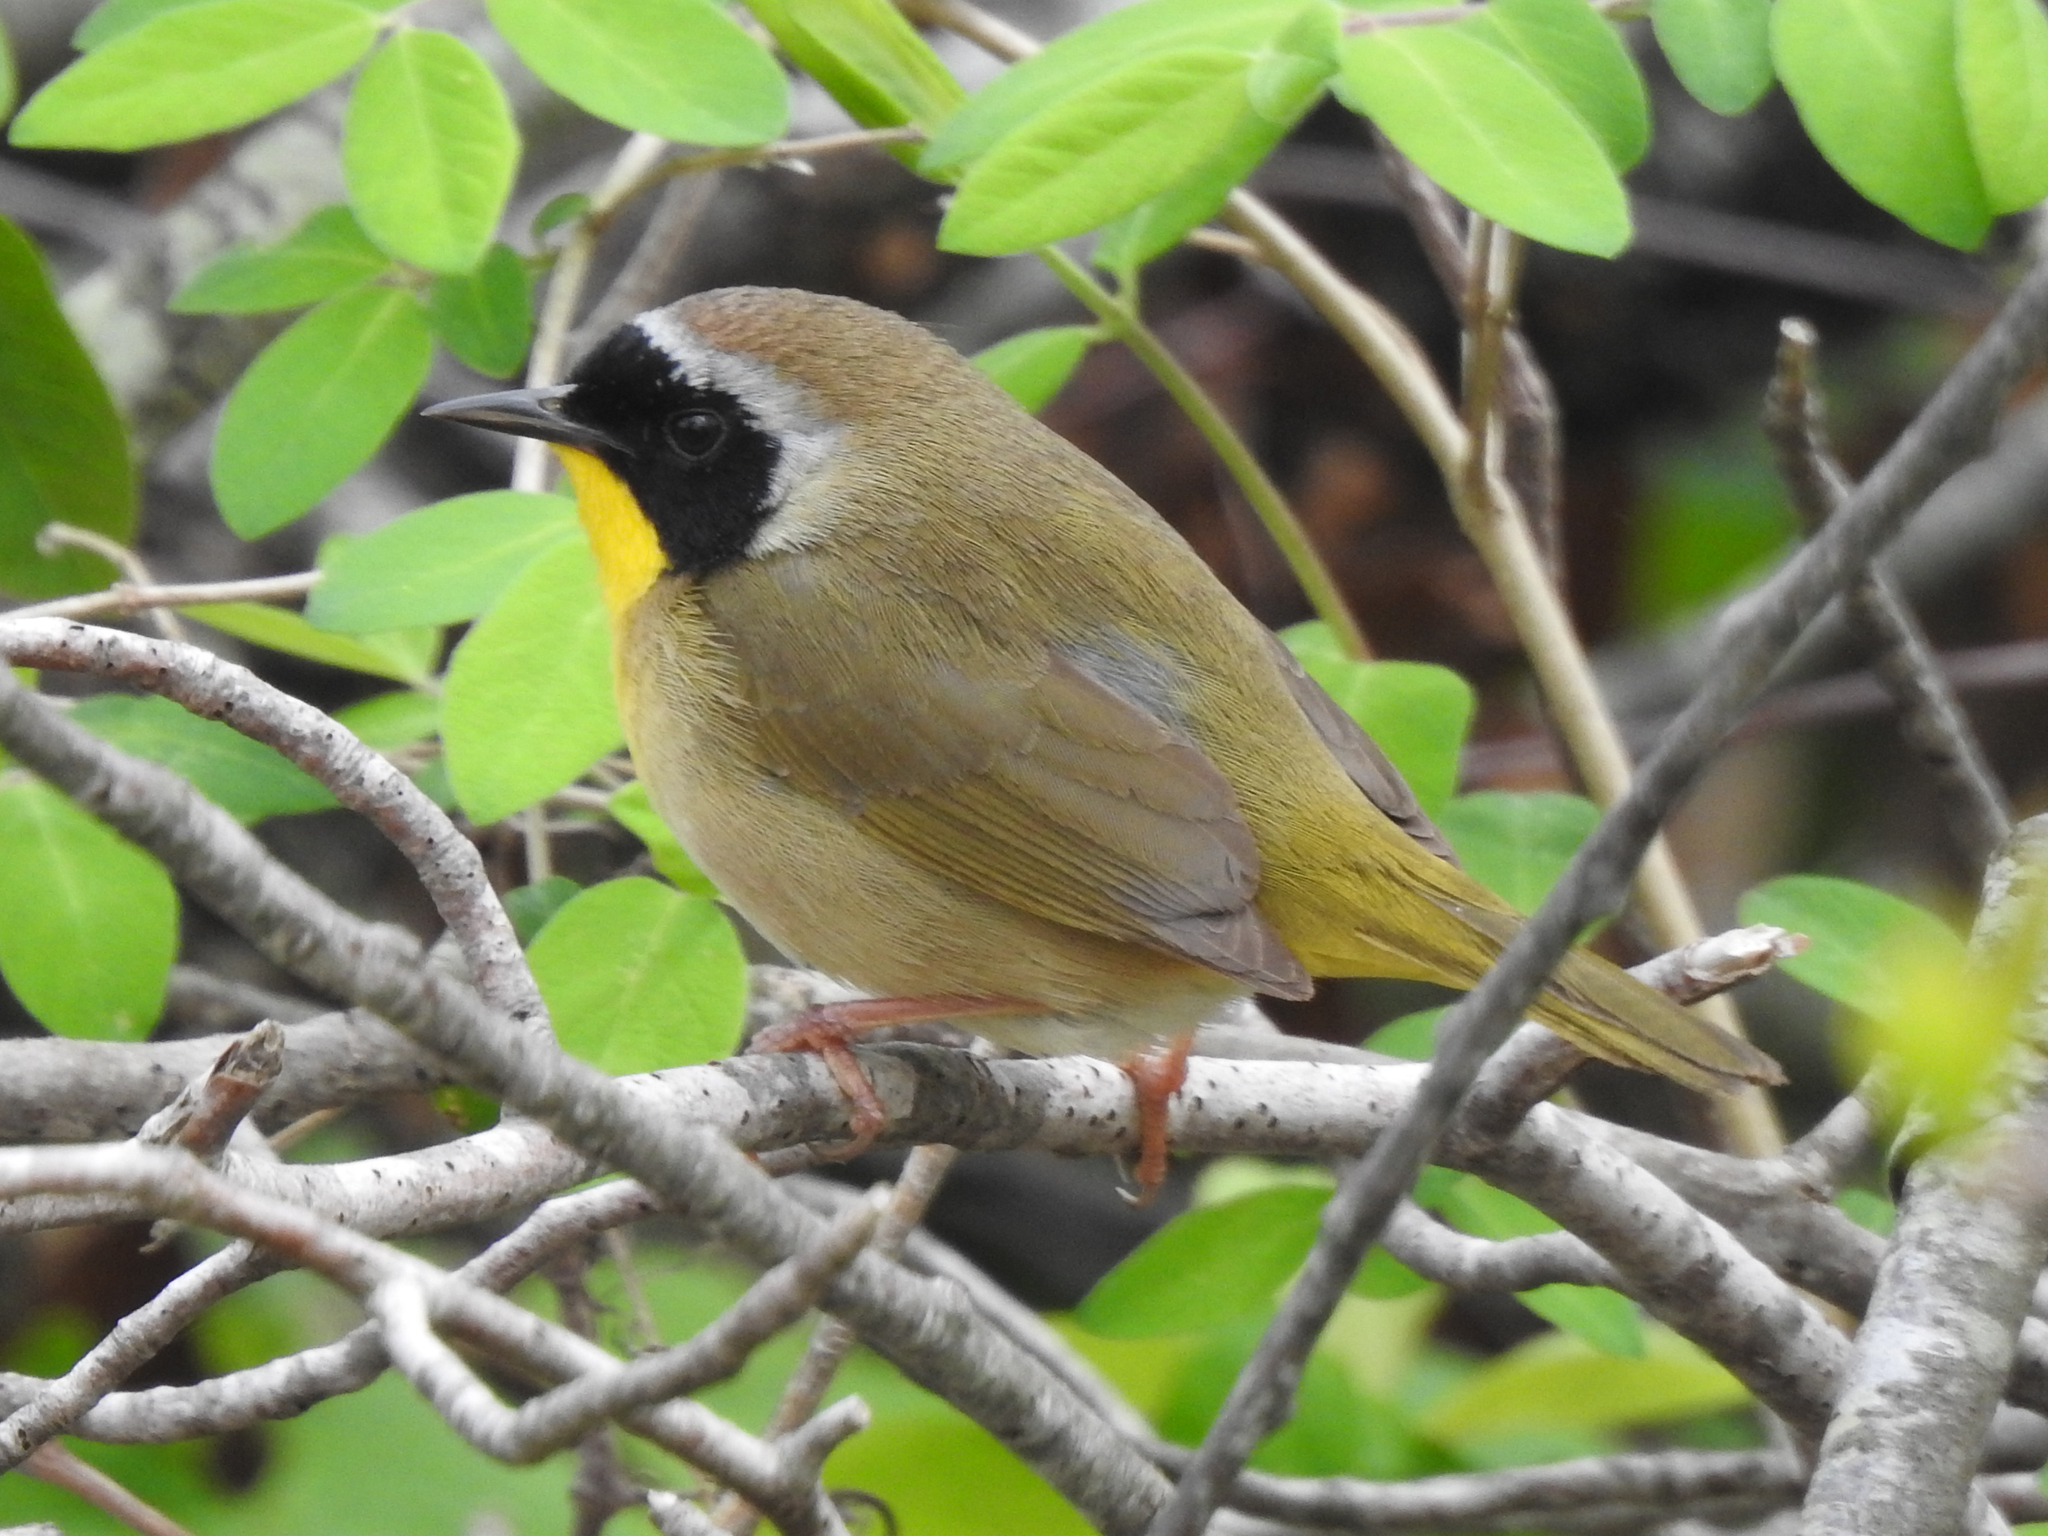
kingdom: Animalia
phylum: Chordata
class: Aves
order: Passeriformes
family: Parulidae
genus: Geothlypis
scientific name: Geothlypis trichas
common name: Common yellowthroat
